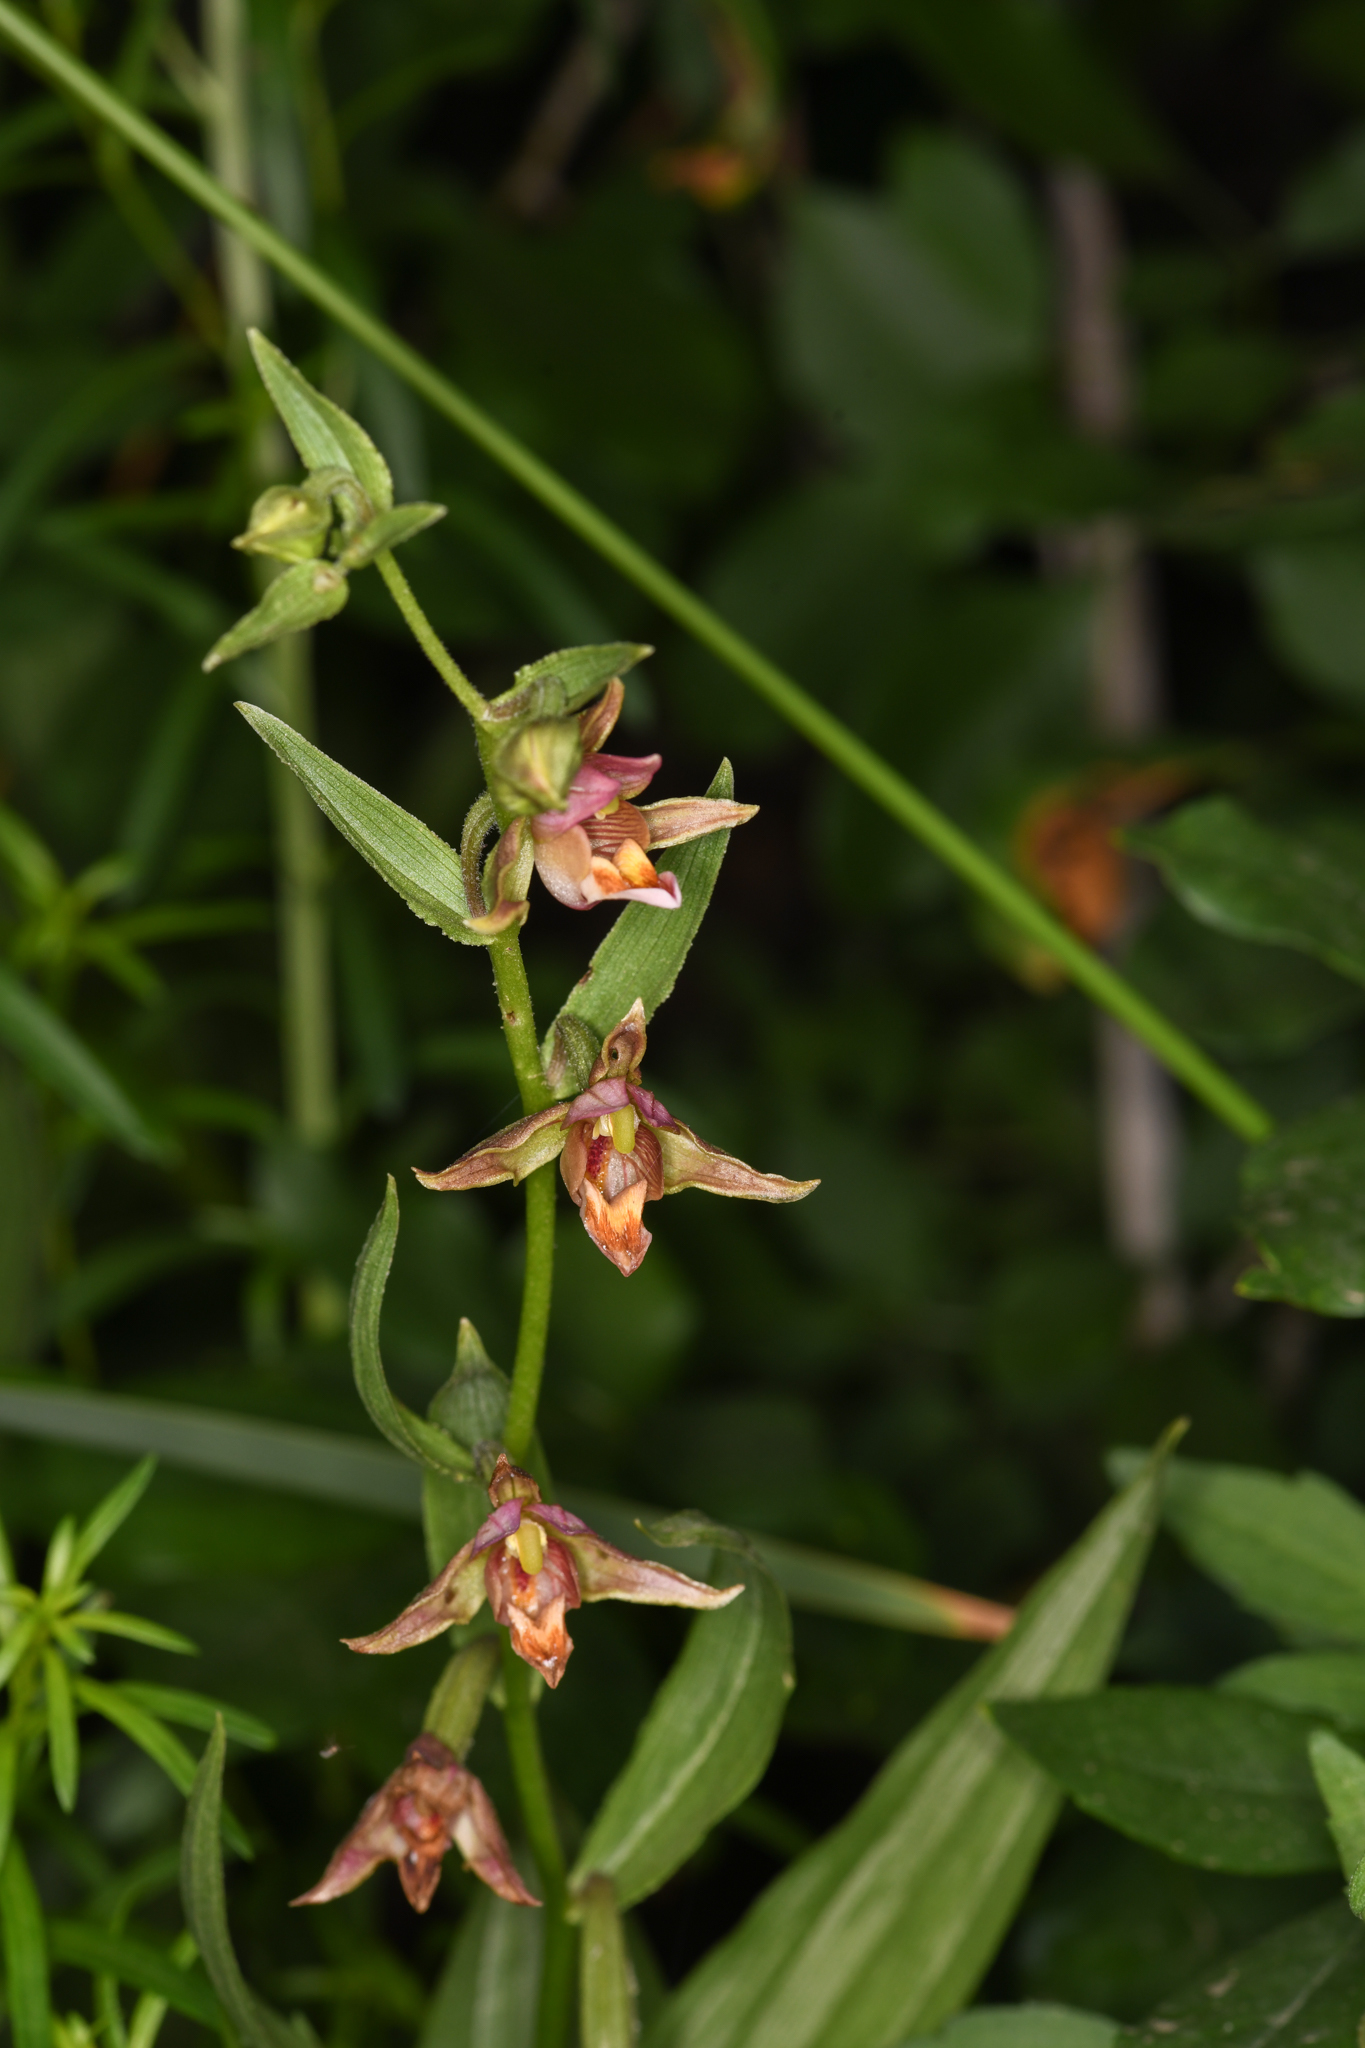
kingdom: Plantae
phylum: Tracheophyta
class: Liliopsida
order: Asparagales
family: Orchidaceae
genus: Epipactis
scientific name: Epipactis gigantea
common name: Chatterbox
